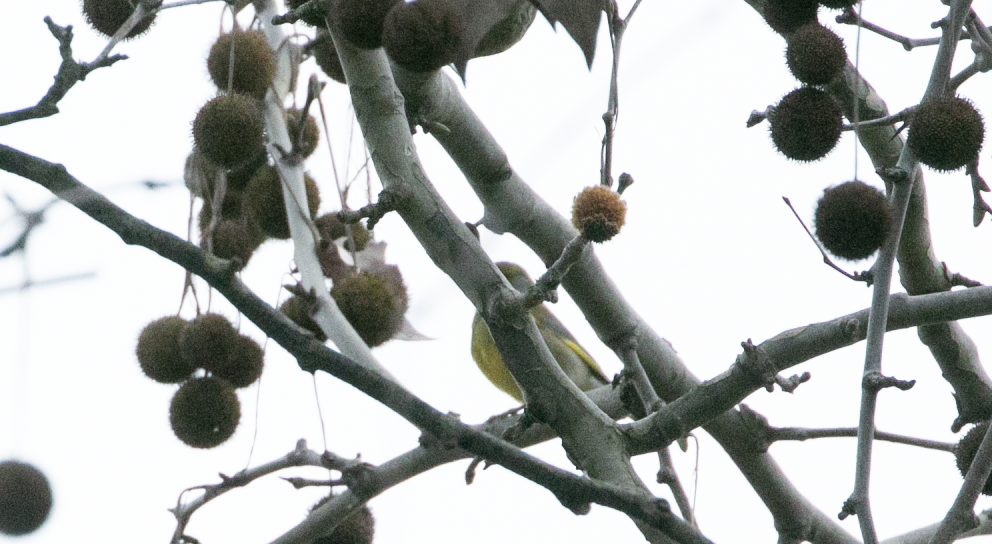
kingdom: Plantae
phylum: Tracheophyta
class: Liliopsida
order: Poales
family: Poaceae
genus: Chloris
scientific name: Chloris chloris
